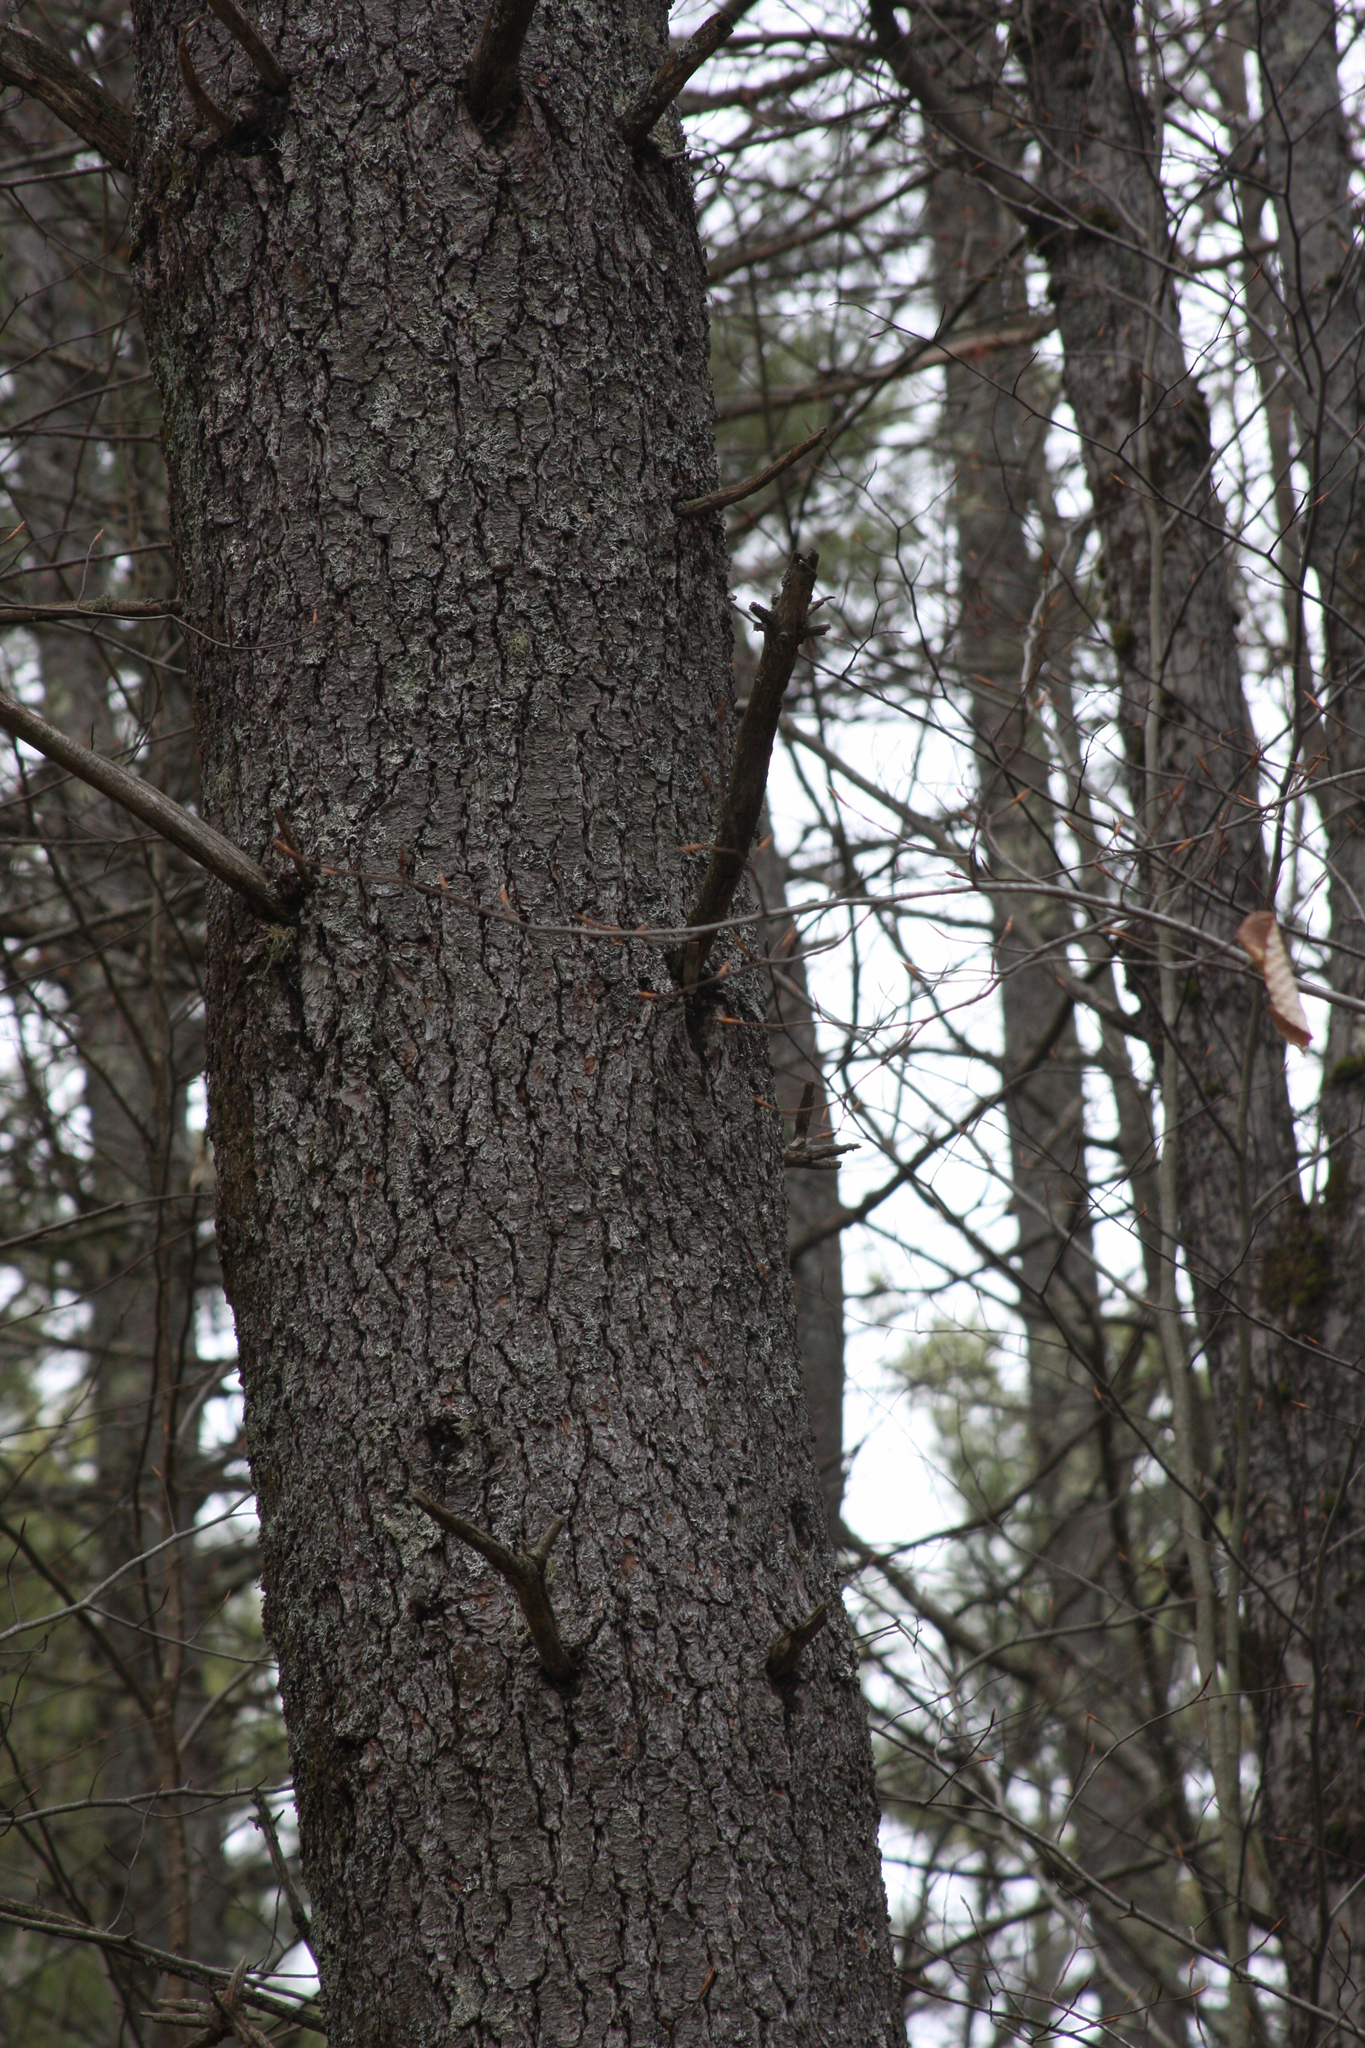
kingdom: Plantae
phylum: Tracheophyta
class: Pinopsida
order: Pinales
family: Pinaceae
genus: Pinus
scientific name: Pinus strobus
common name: Weymouth pine
